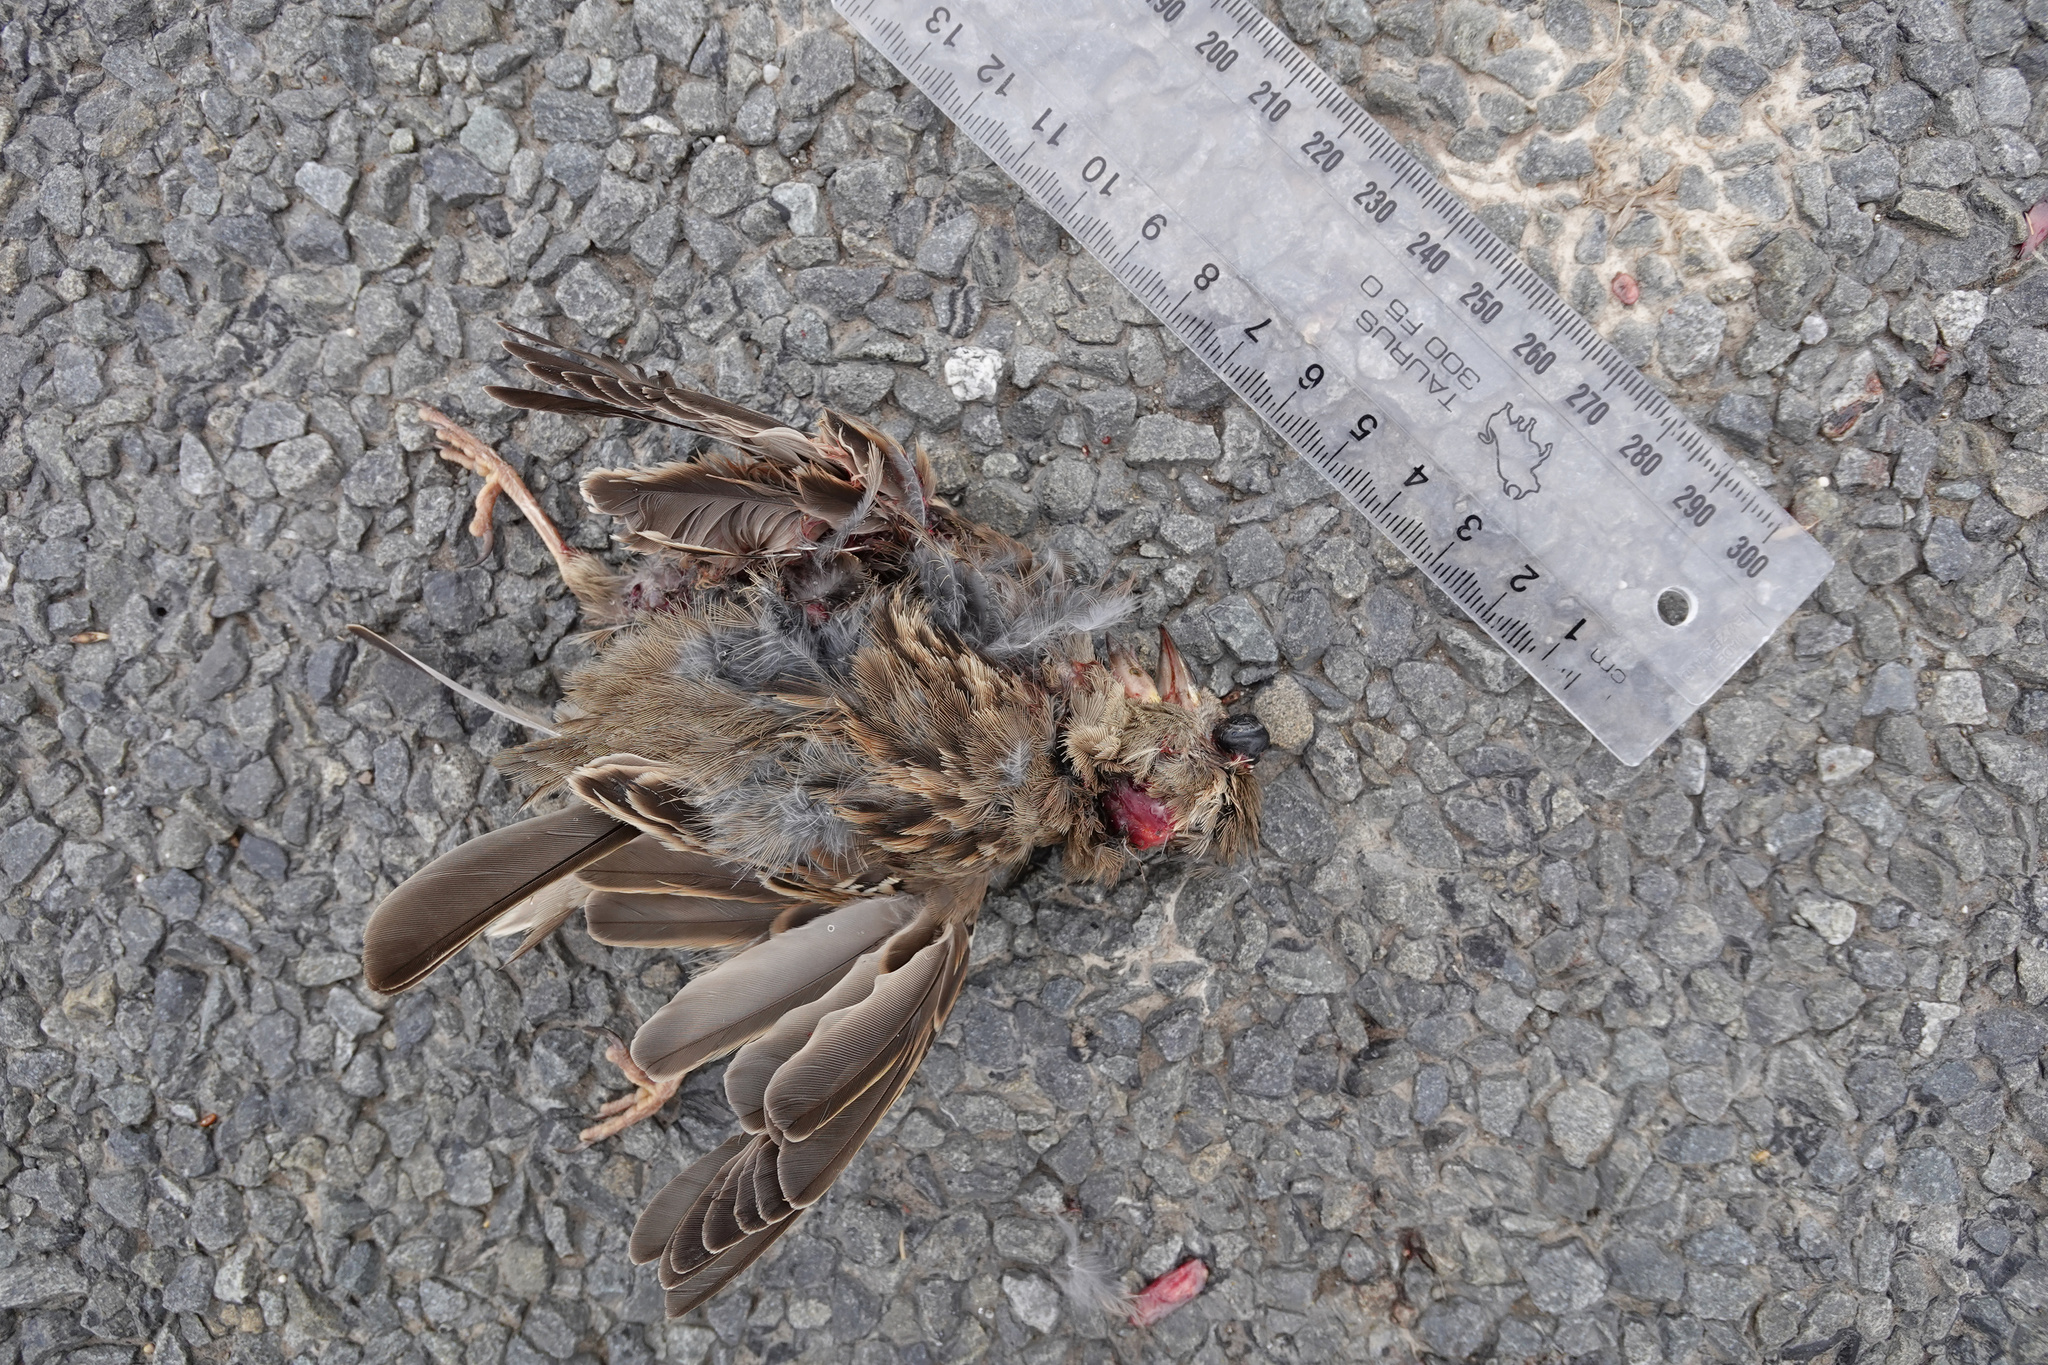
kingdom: Animalia
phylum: Chordata
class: Aves
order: Passeriformes
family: Passeridae
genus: Passer
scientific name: Passer domesticus
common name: House sparrow
